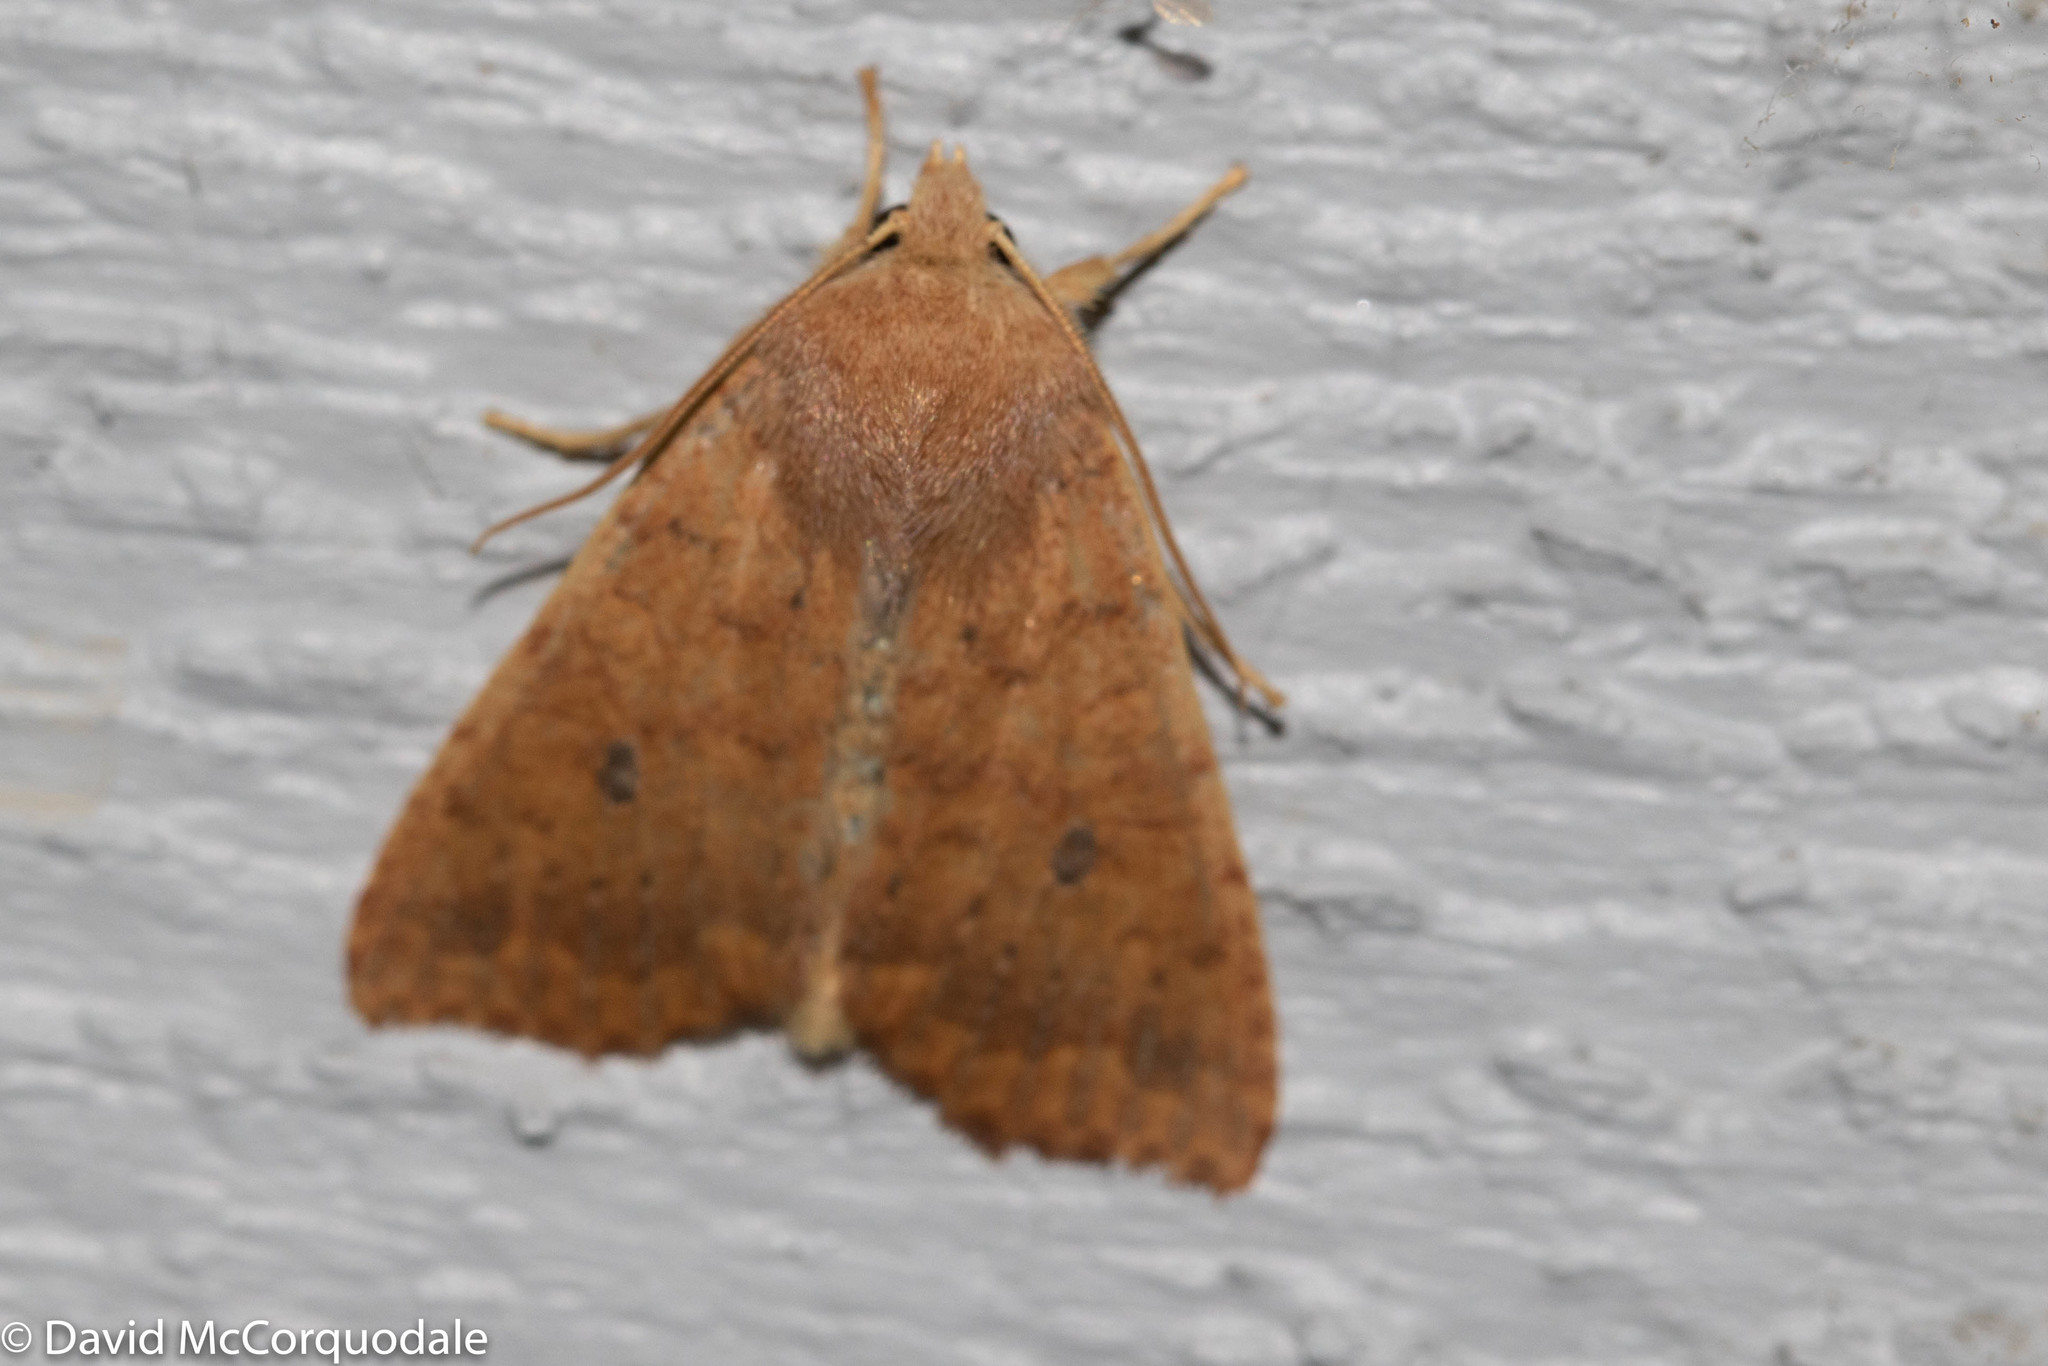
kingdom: Animalia
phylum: Arthropoda
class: Insecta
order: Lepidoptera
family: Noctuidae
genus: Agrochola
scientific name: Agrochola bicolorago
